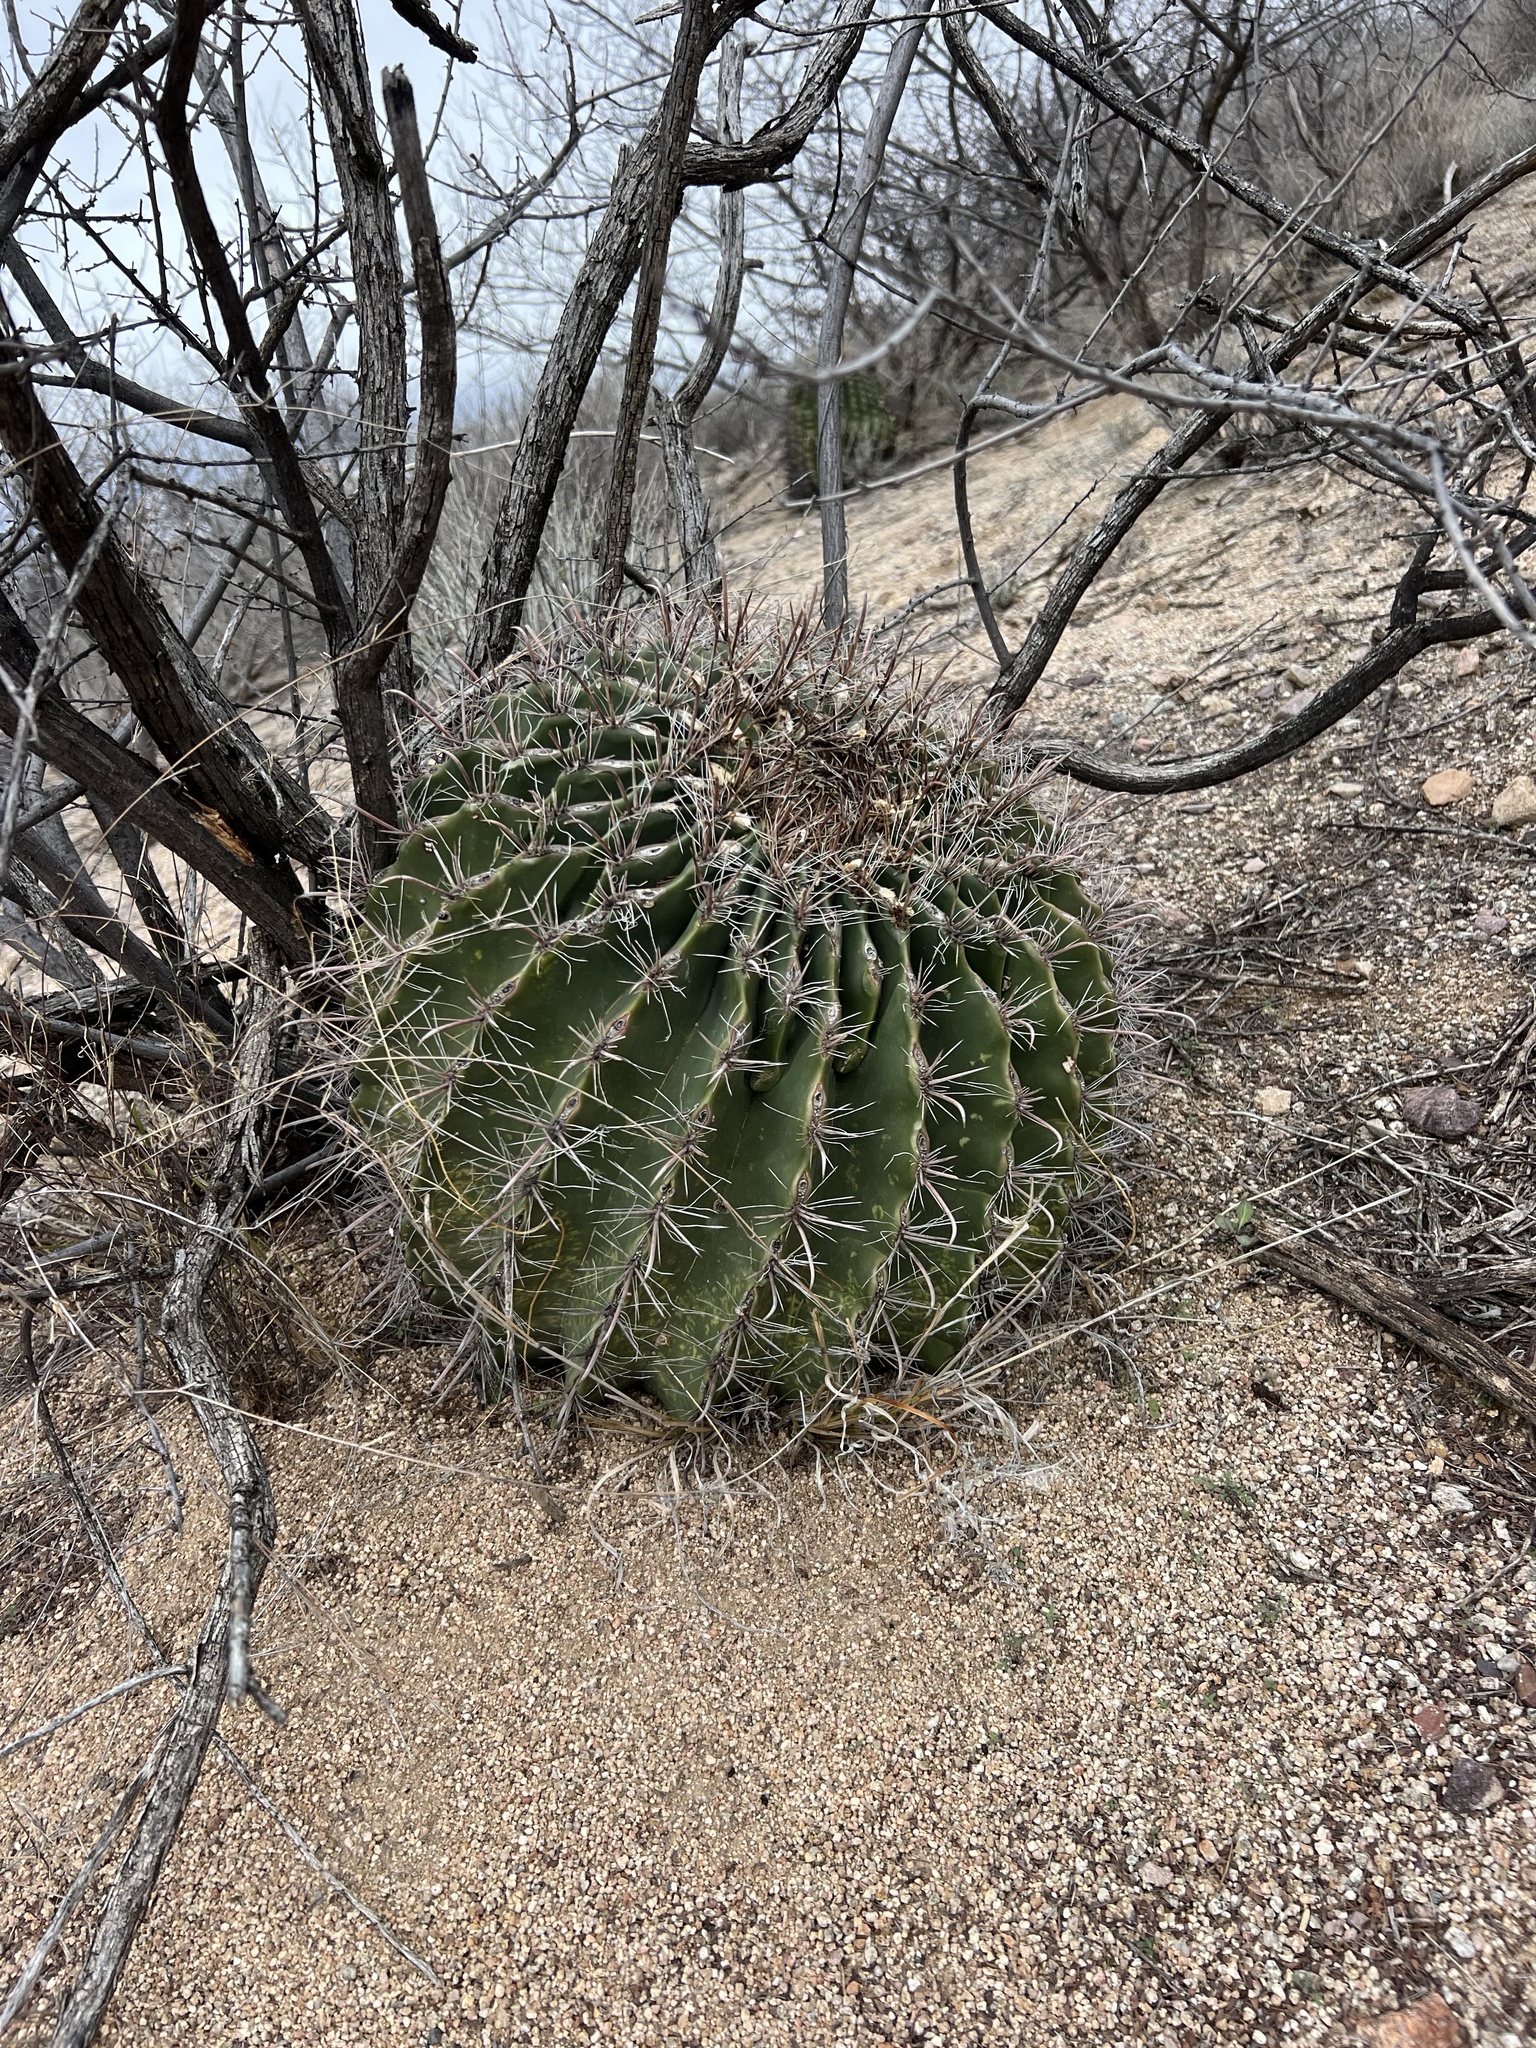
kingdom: Plantae
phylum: Tracheophyta
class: Magnoliopsida
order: Caryophyllales
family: Cactaceae
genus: Ferocactus
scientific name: Ferocactus wislizeni
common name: Candy barrel cactus
